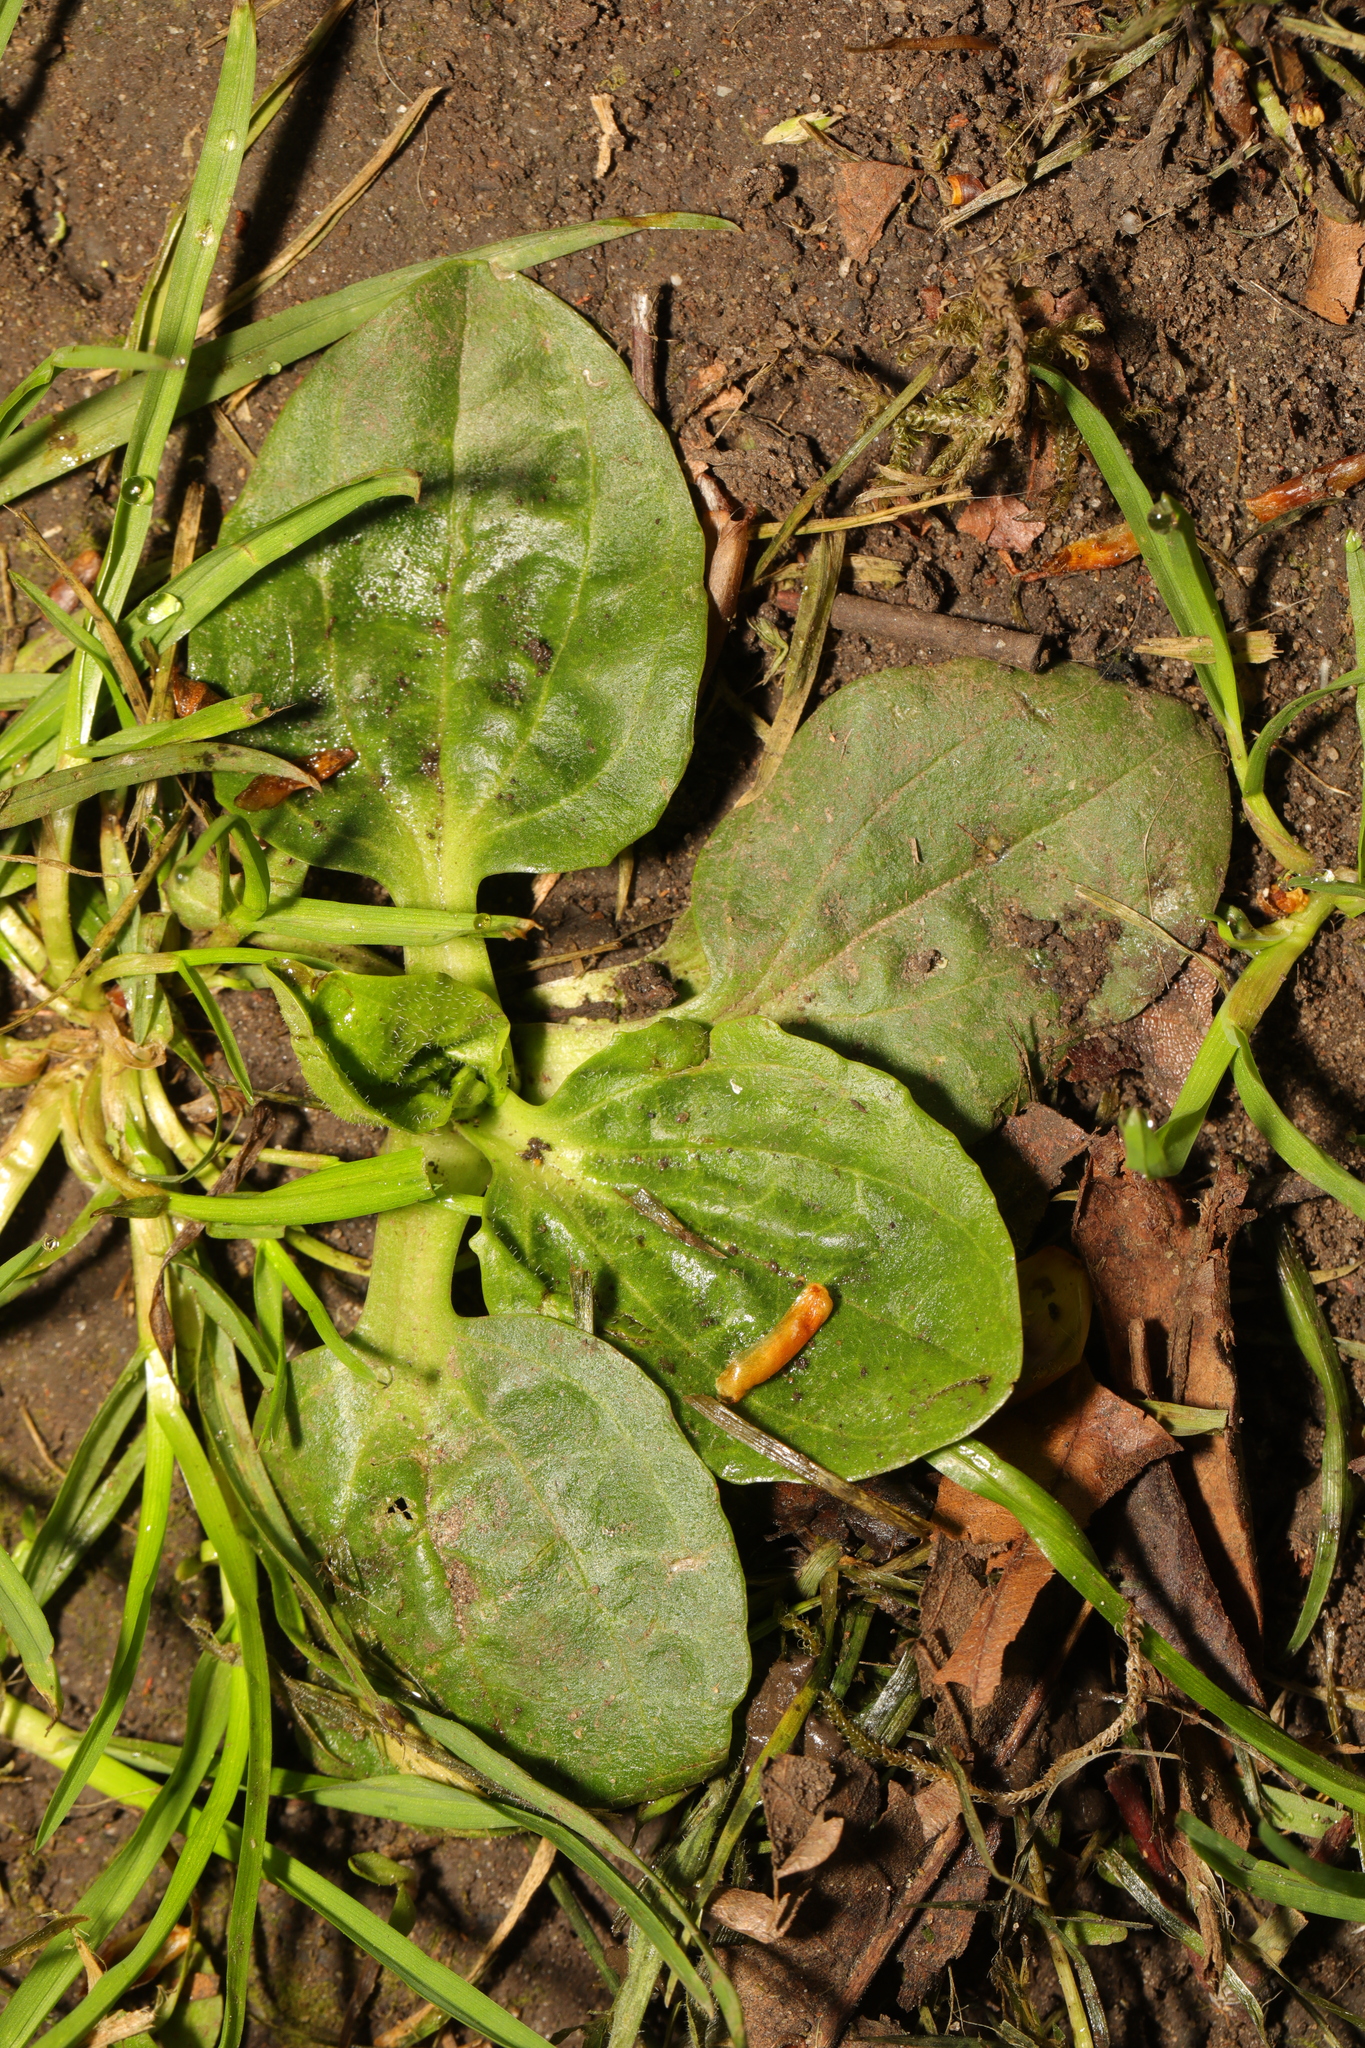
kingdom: Plantae
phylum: Tracheophyta
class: Magnoliopsida
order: Lamiales
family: Plantaginaceae
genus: Plantago
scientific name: Plantago major
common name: Common plantain
